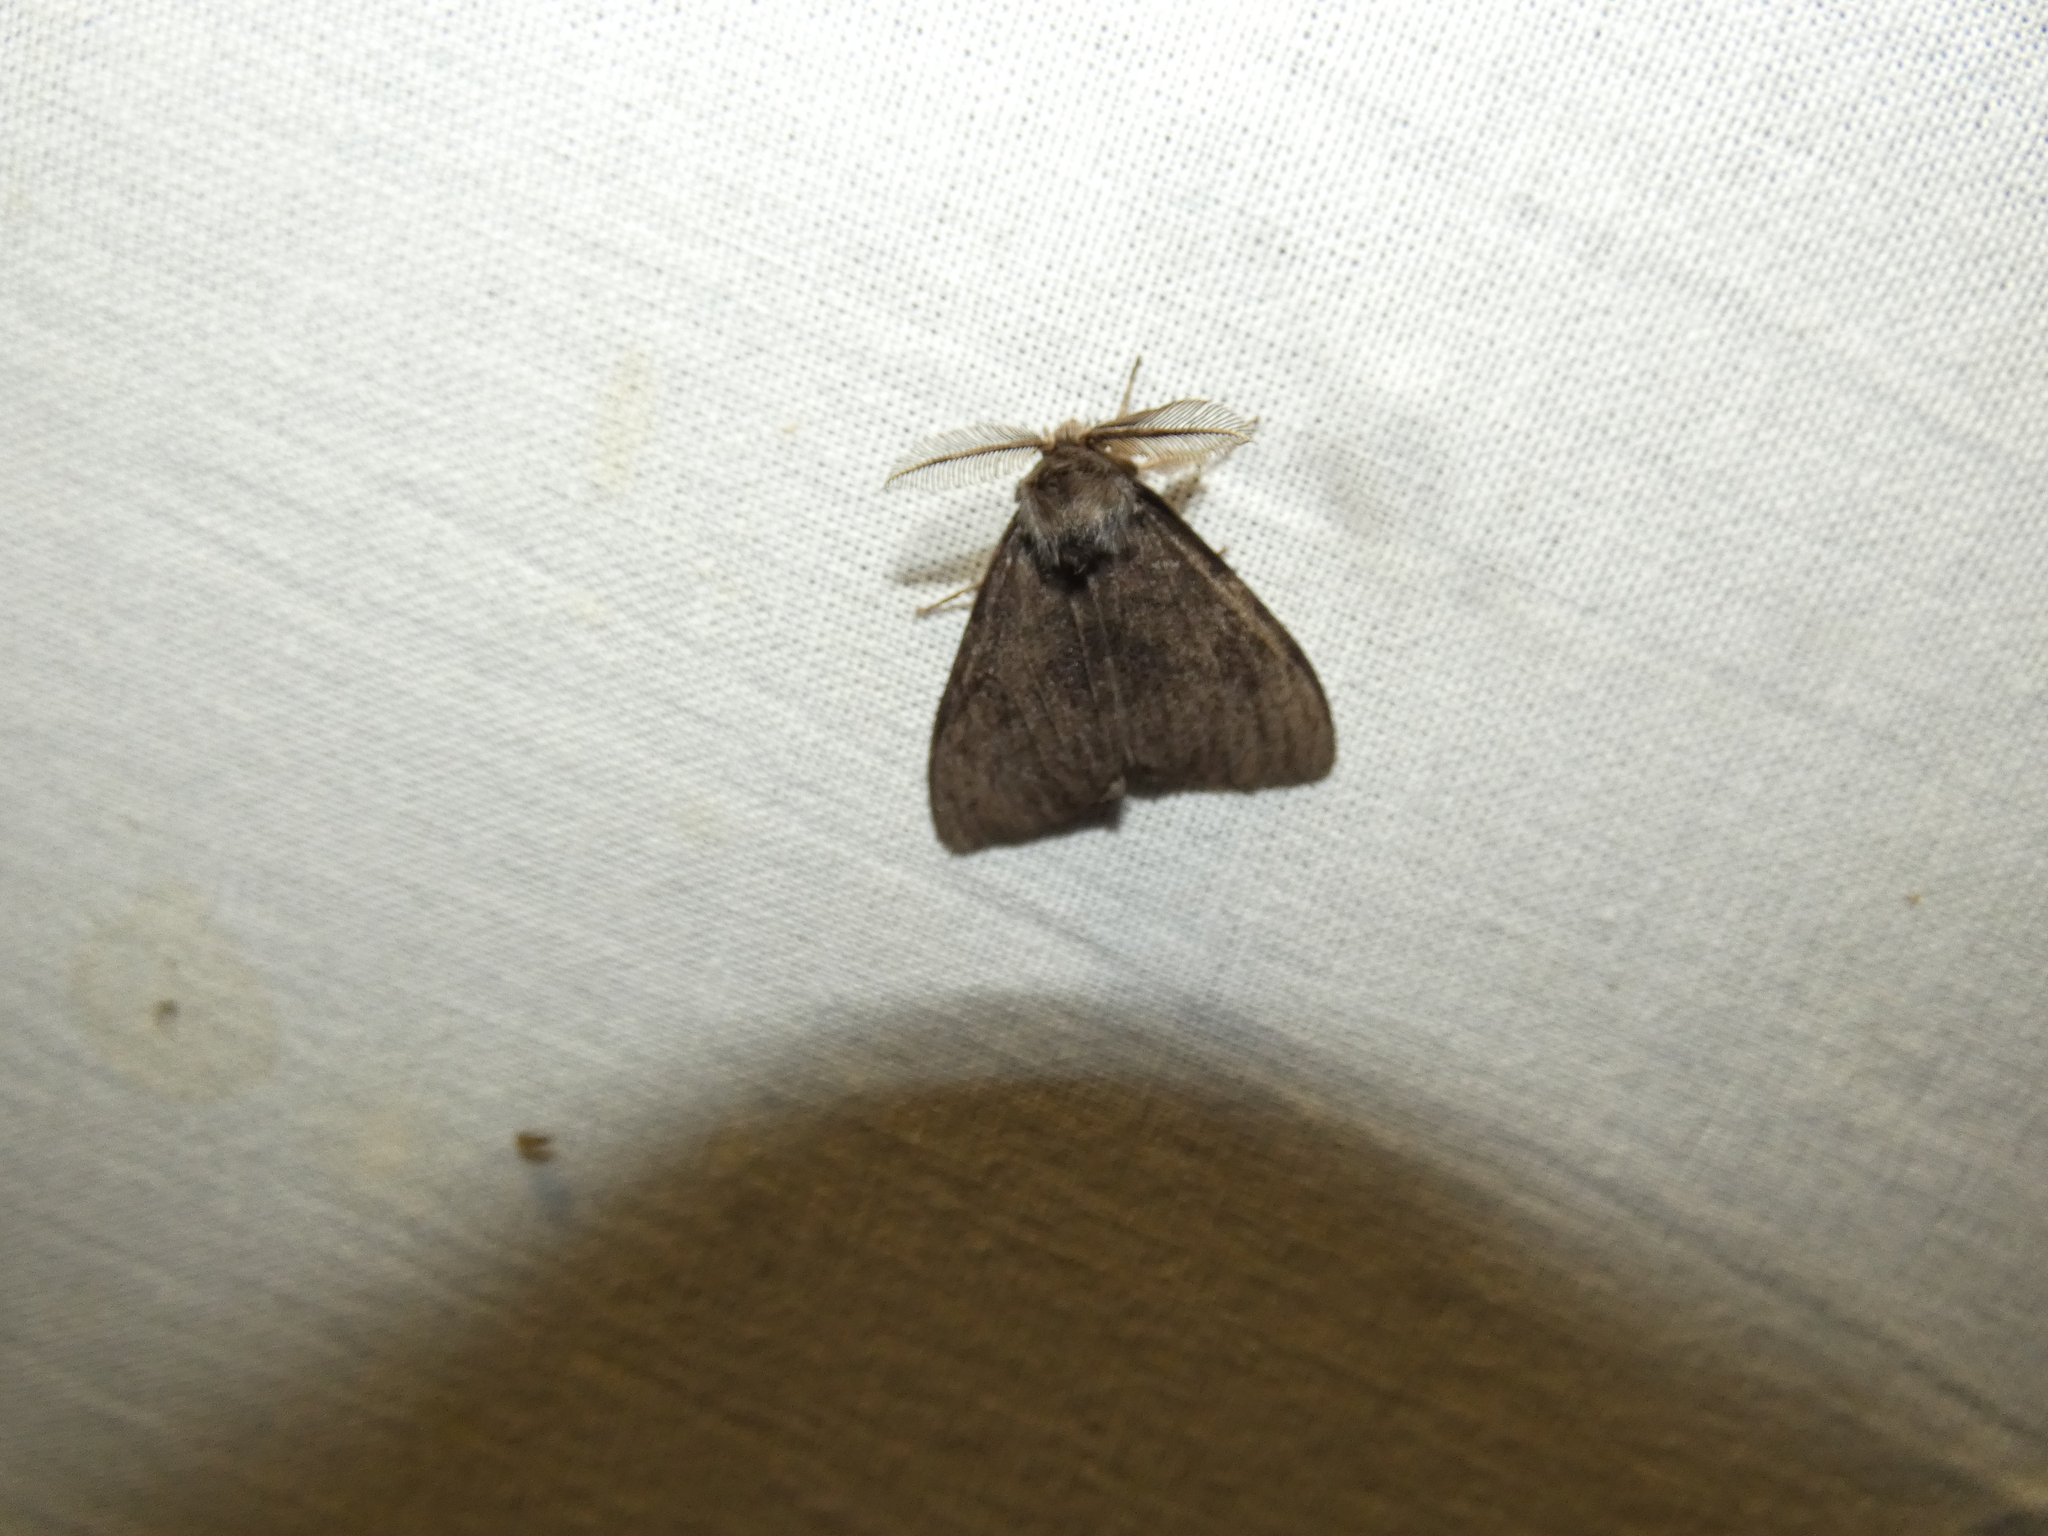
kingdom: Animalia
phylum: Arthropoda
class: Insecta
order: Lepidoptera
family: Erebidae
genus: Lymantria
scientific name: Lymantria monacha
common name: Black arches
